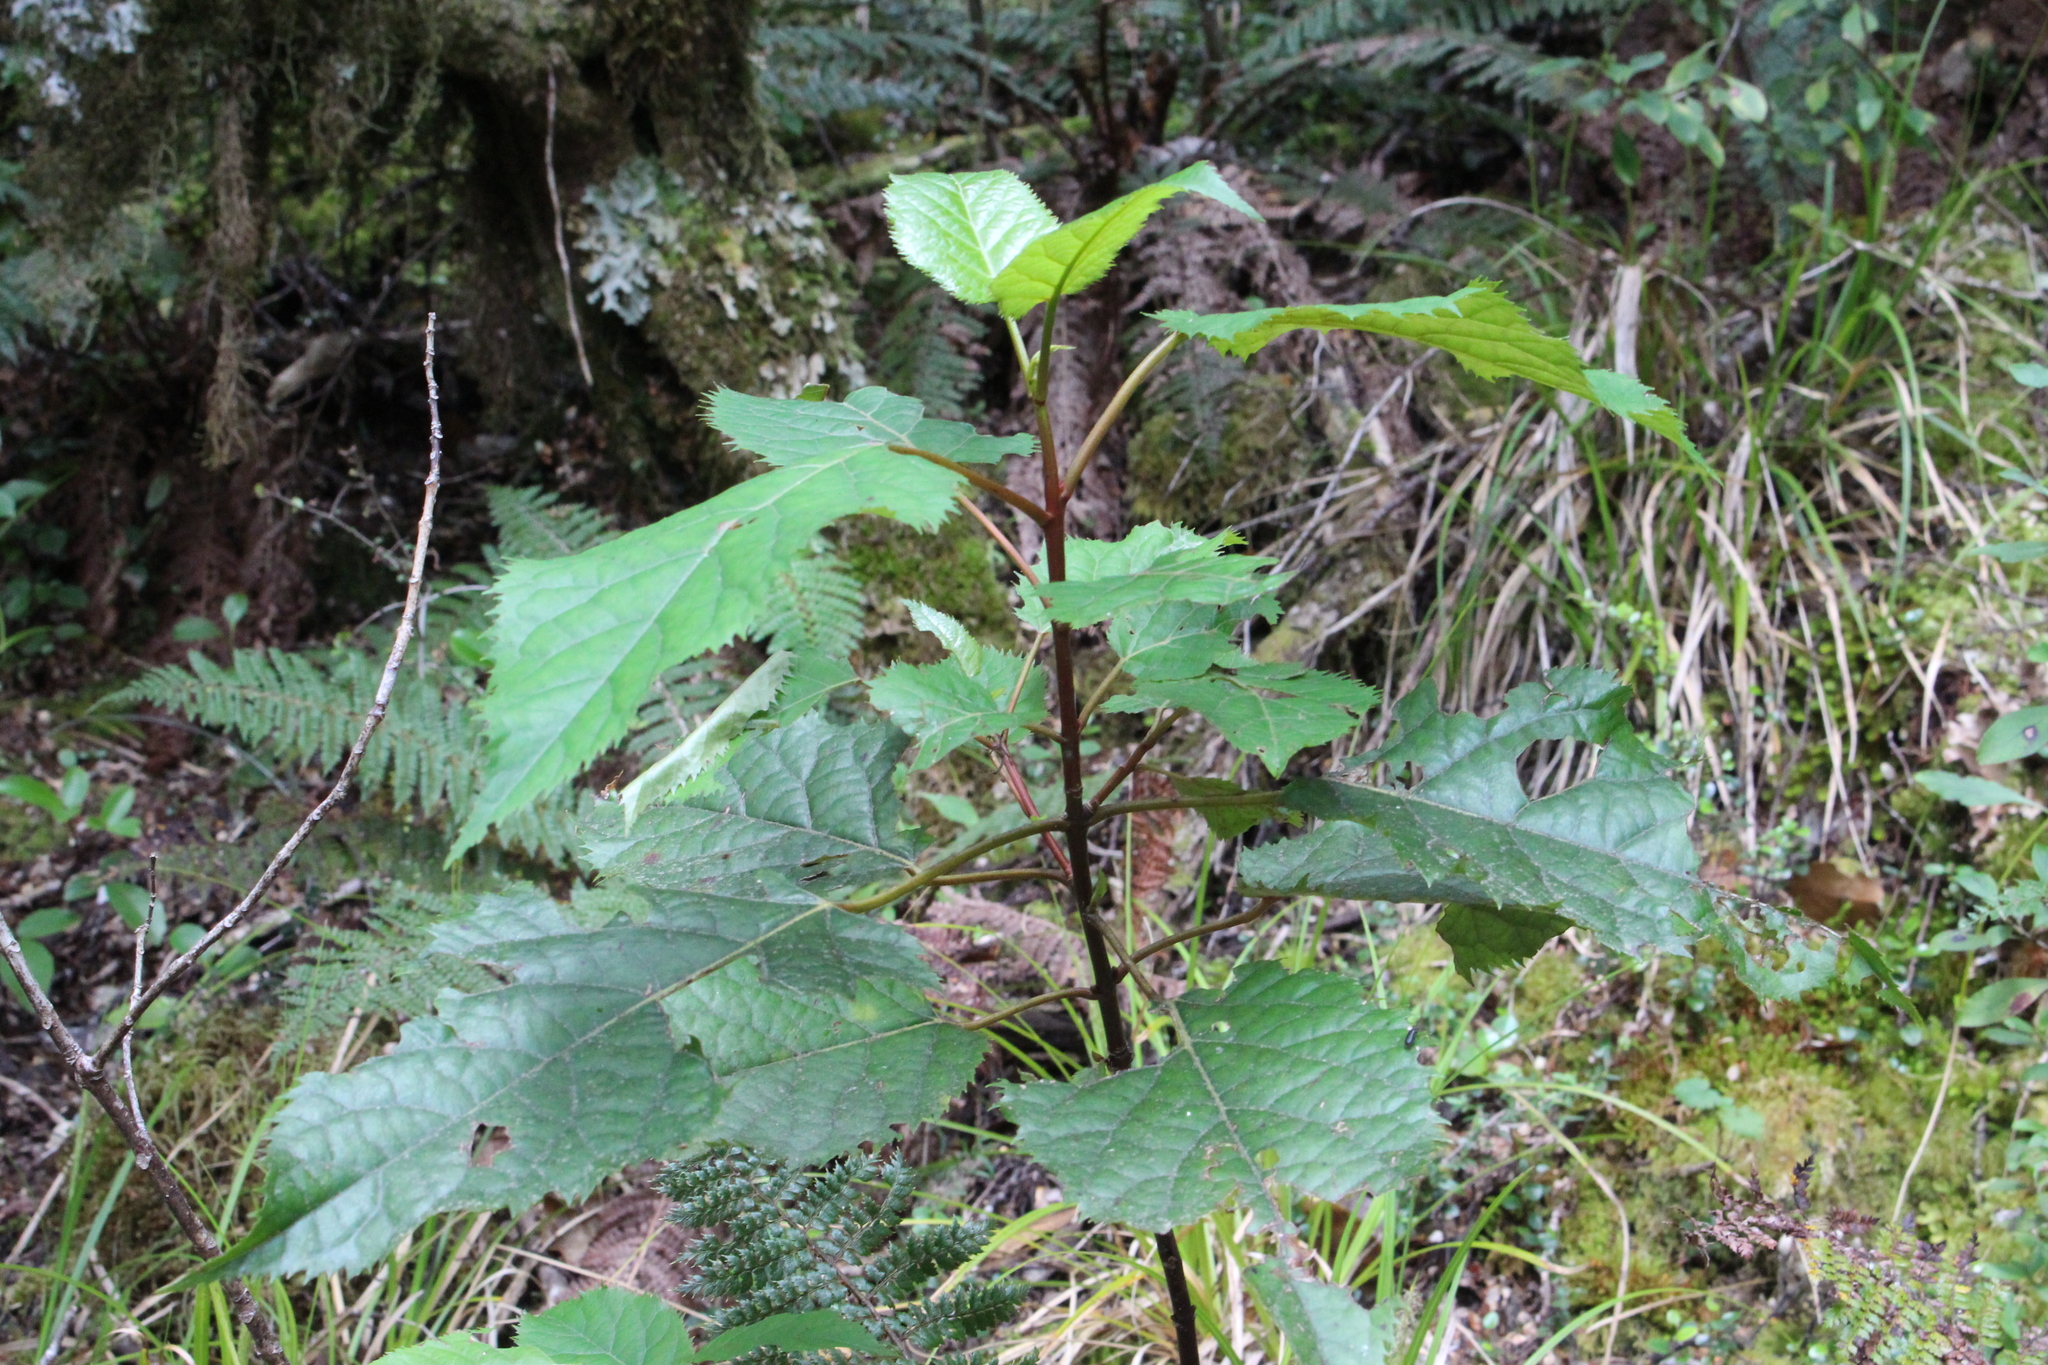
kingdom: Plantae
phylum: Tracheophyta
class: Magnoliopsida
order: Oxalidales
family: Elaeocarpaceae
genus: Aristotelia
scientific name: Aristotelia serrata
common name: New zealand wineberry
